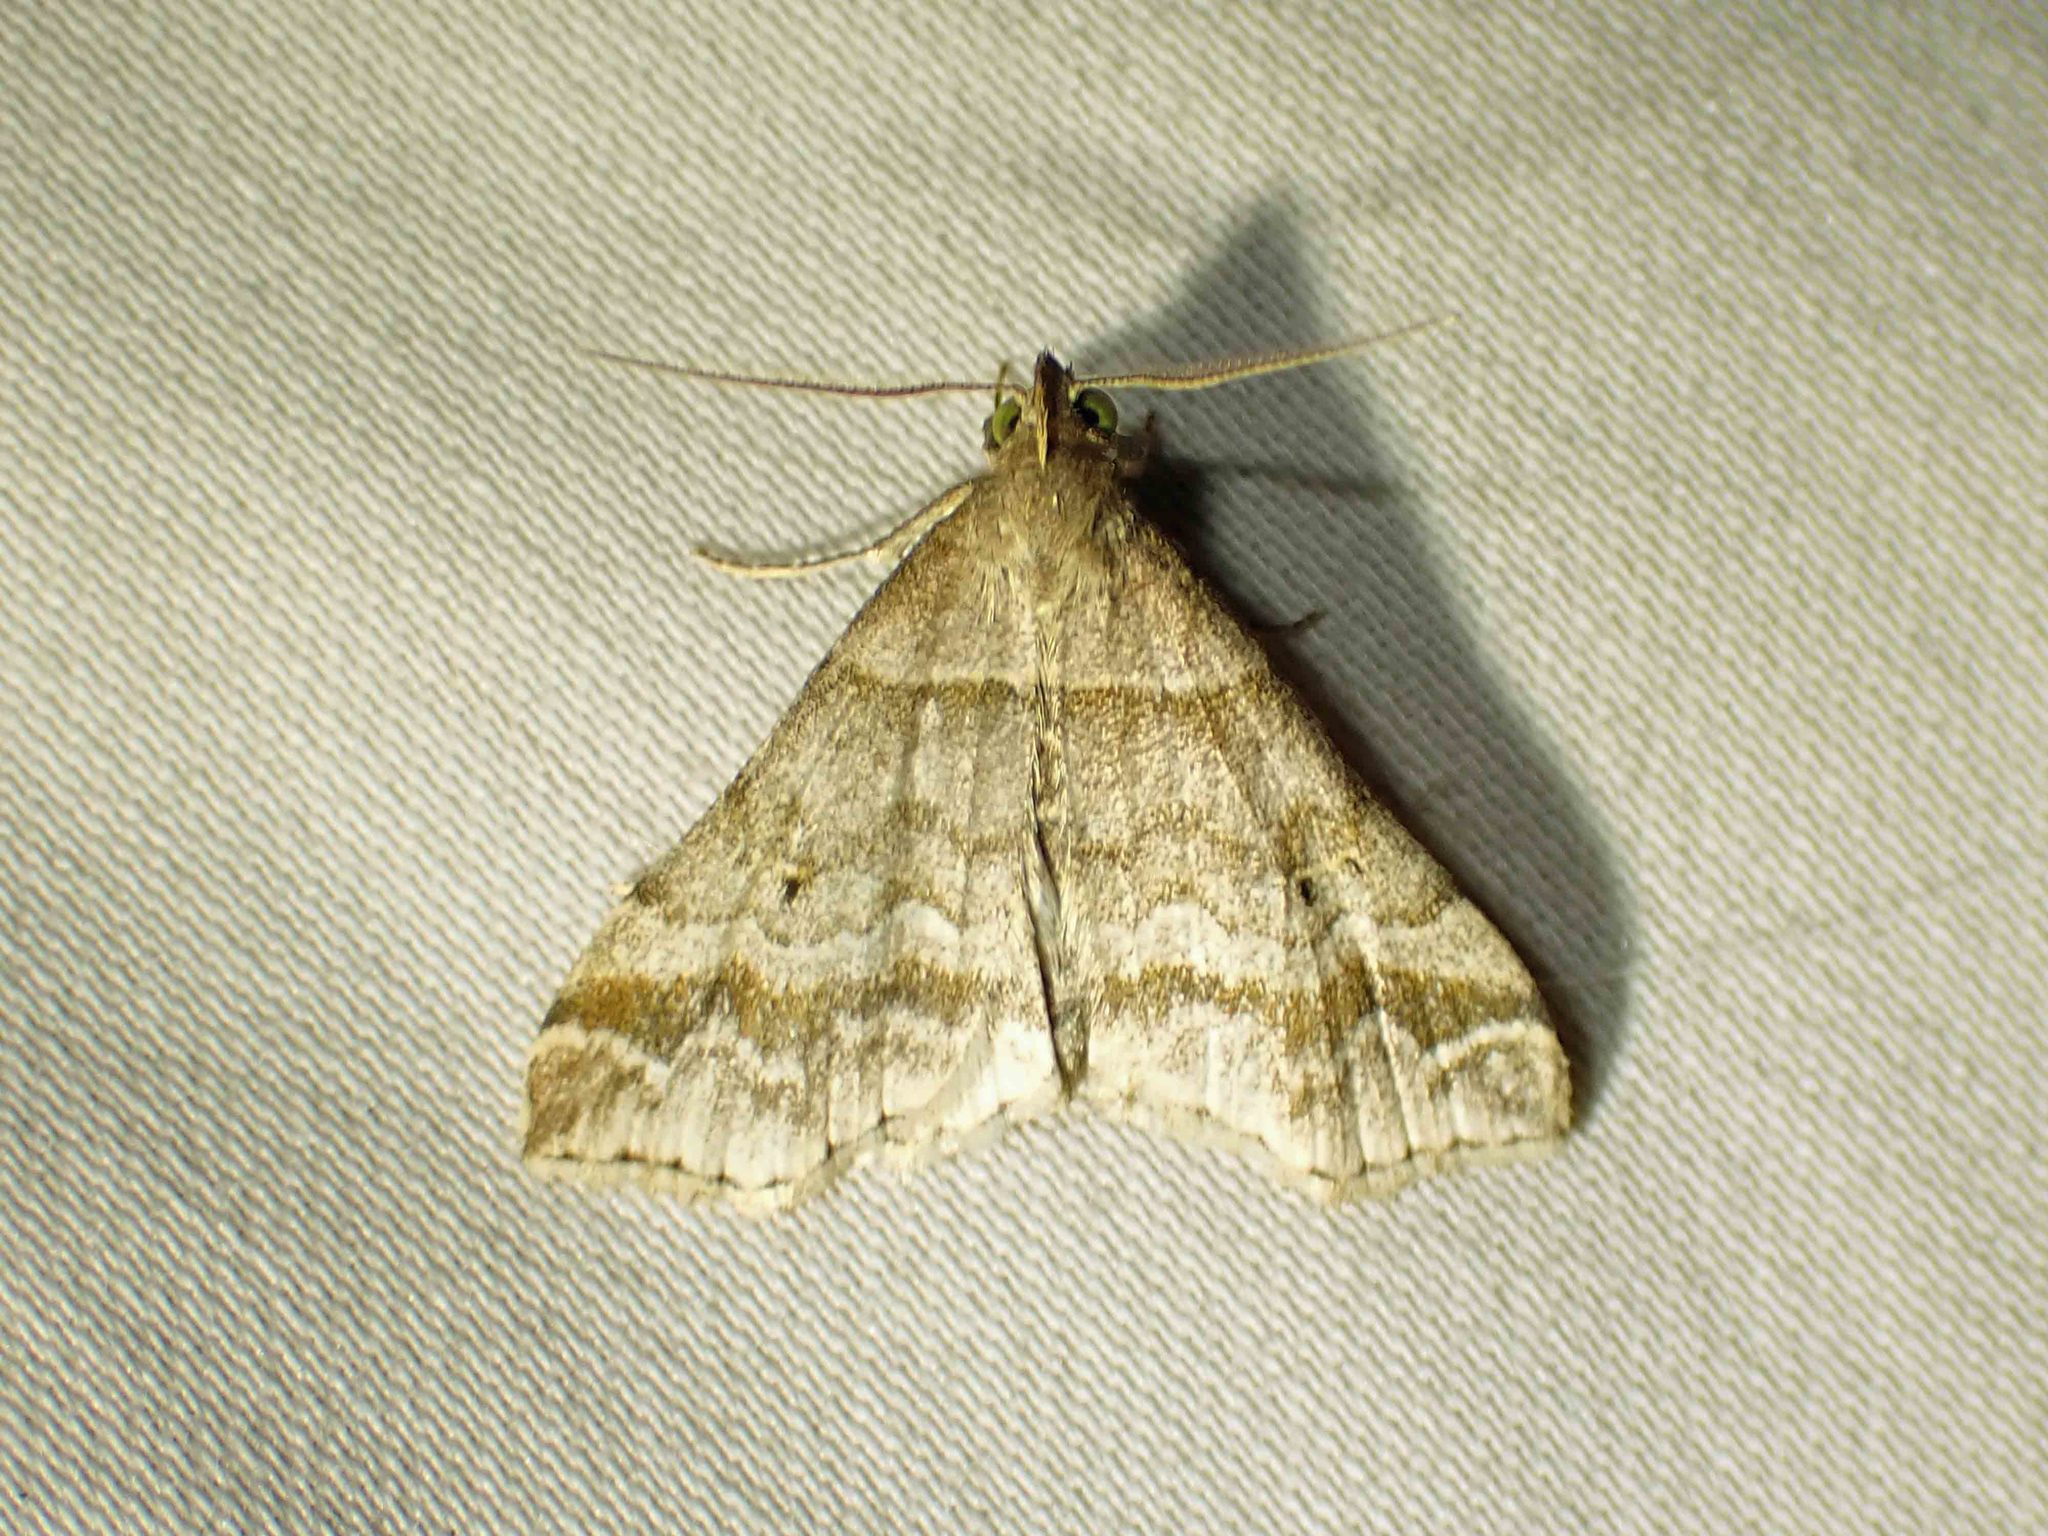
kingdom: Animalia
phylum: Arthropoda
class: Insecta
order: Lepidoptera
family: Erebidae
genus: Phaeolita
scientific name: Phaeolita pyramusalis
